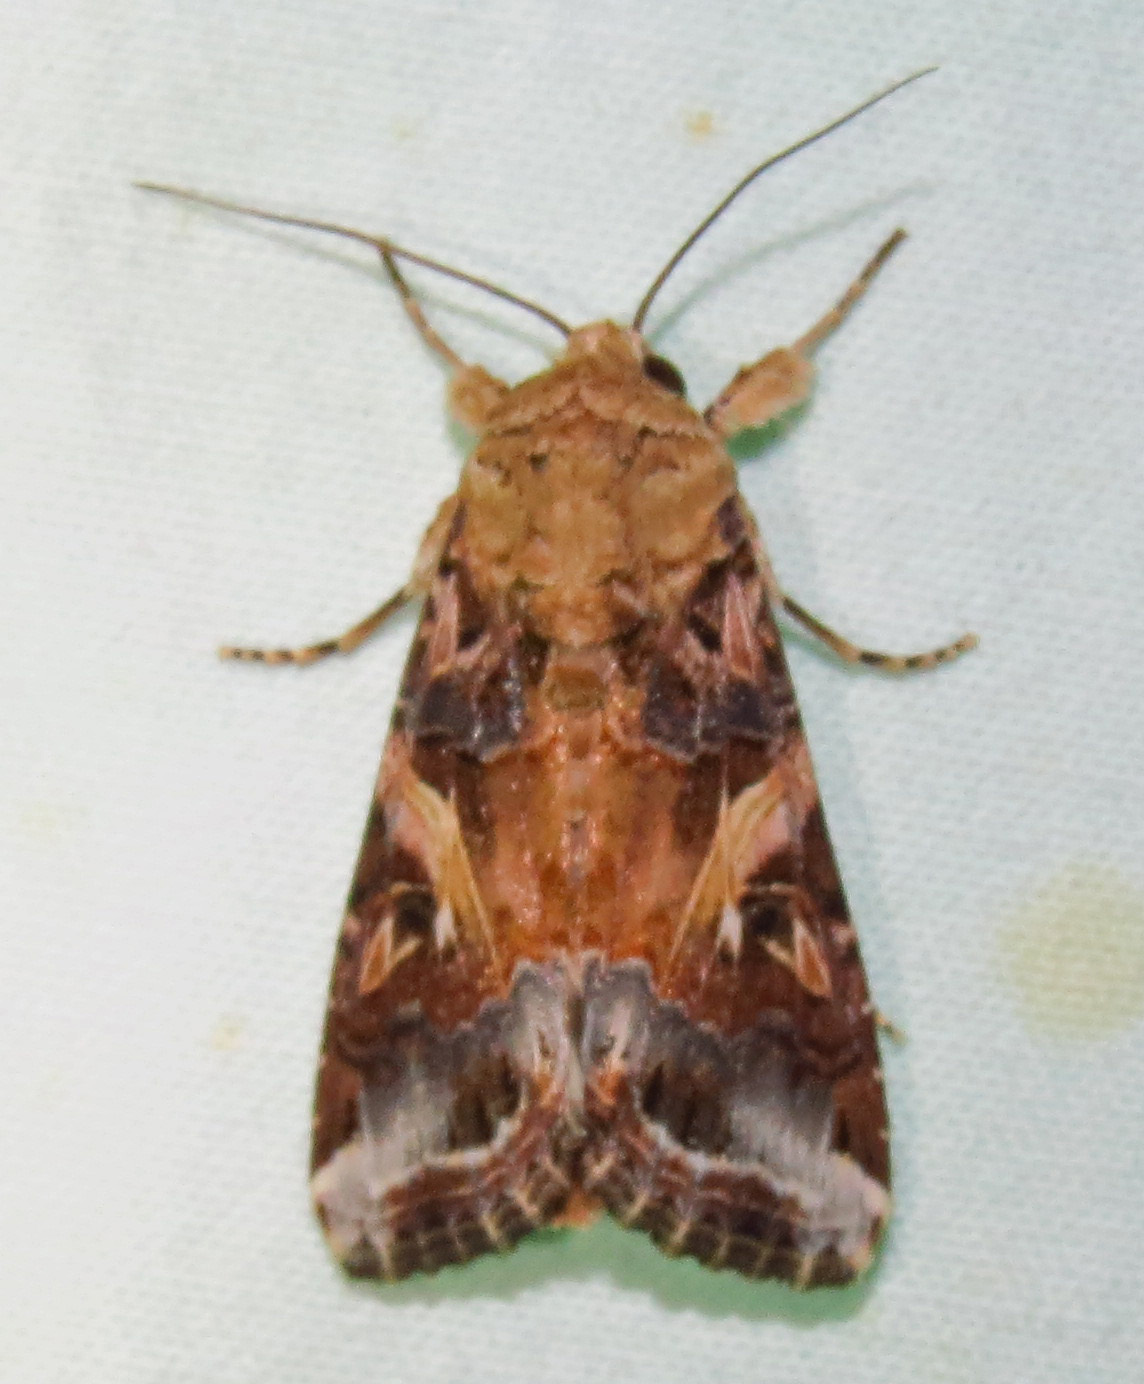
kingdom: Animalia
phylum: Arthropoda
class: Insecta
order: Lepidoptera
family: Noctuidae
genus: Spodoptera
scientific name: Spodoptera ornithogalli
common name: Yellow-striped armyworm
